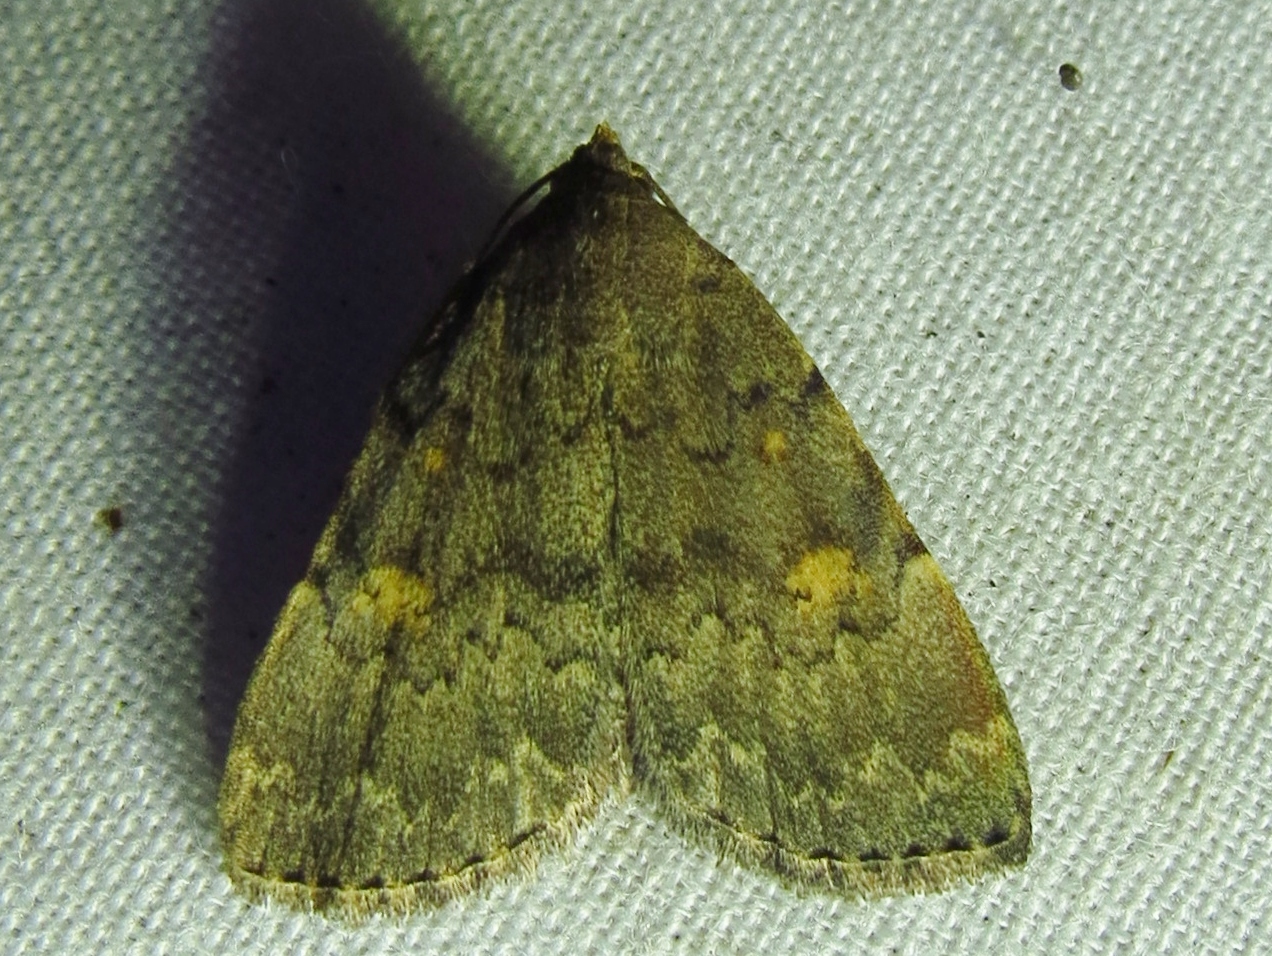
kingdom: Animalia
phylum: Arthropoda
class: Insecta
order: Lepidoptera
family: Erebidae
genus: Idia
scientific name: Idia aemula
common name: Common idia moth
